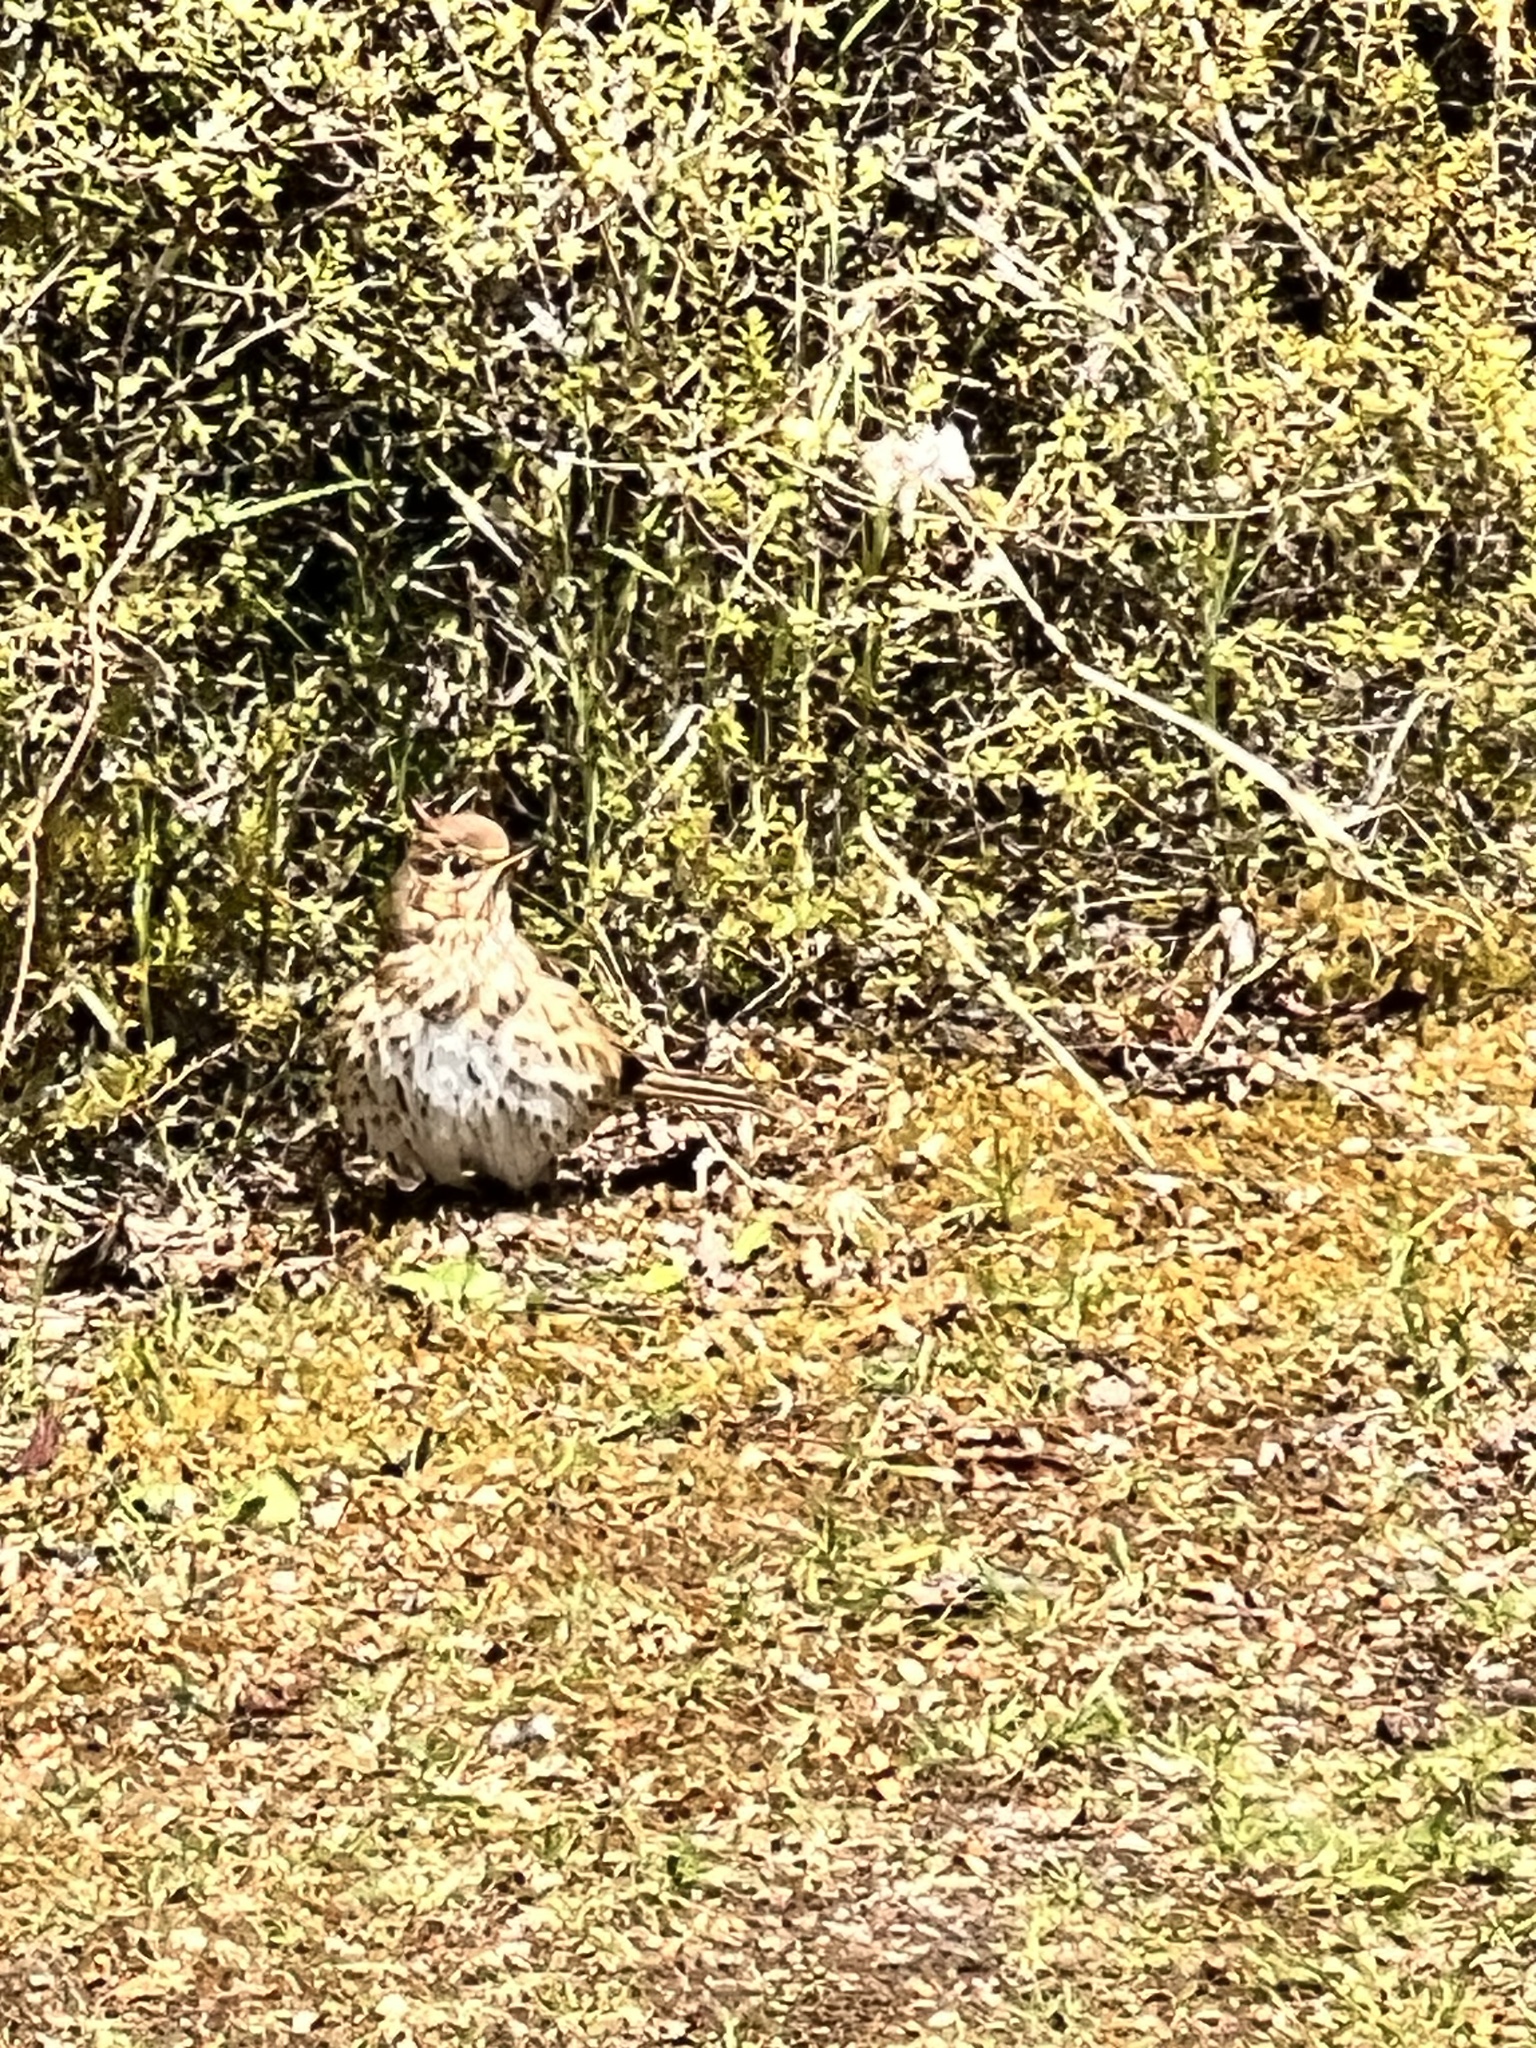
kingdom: Animalia
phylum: Chordata
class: Aves
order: Passeriformes
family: Turdidae
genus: Turdus
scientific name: Turdus philomelos
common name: Song thrush
